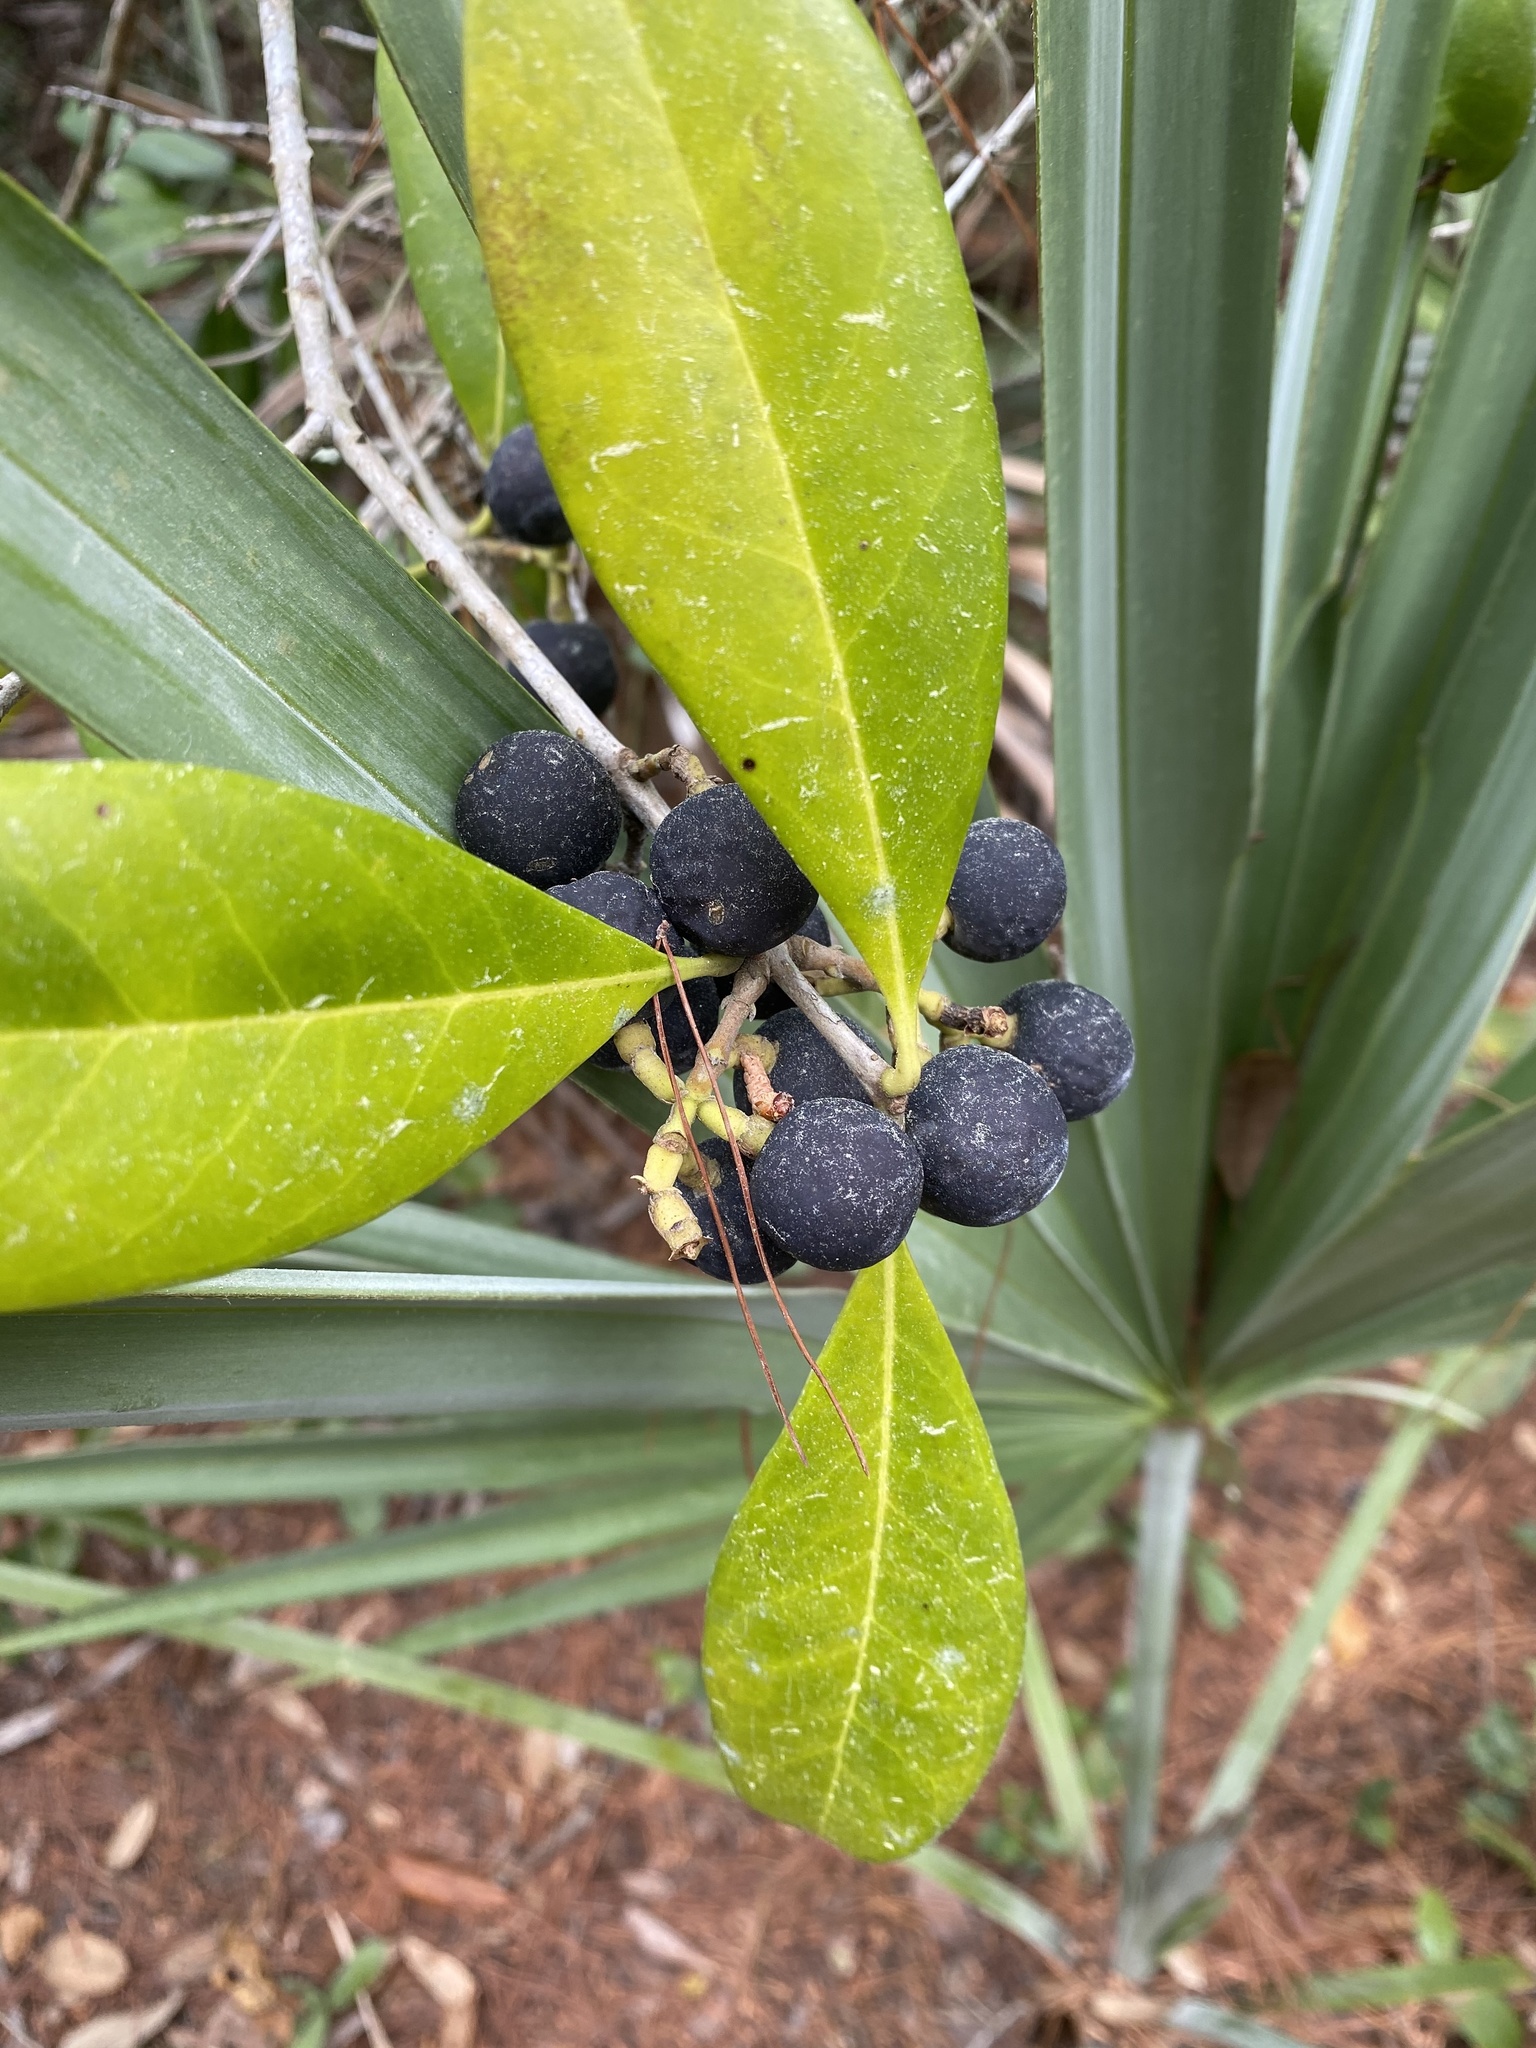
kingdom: Plantae
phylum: Tracheophyta
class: Magnoliopsida
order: Lamiales
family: Oleaceae
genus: Cartrema
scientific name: Cartrema americana
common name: Devilwood
